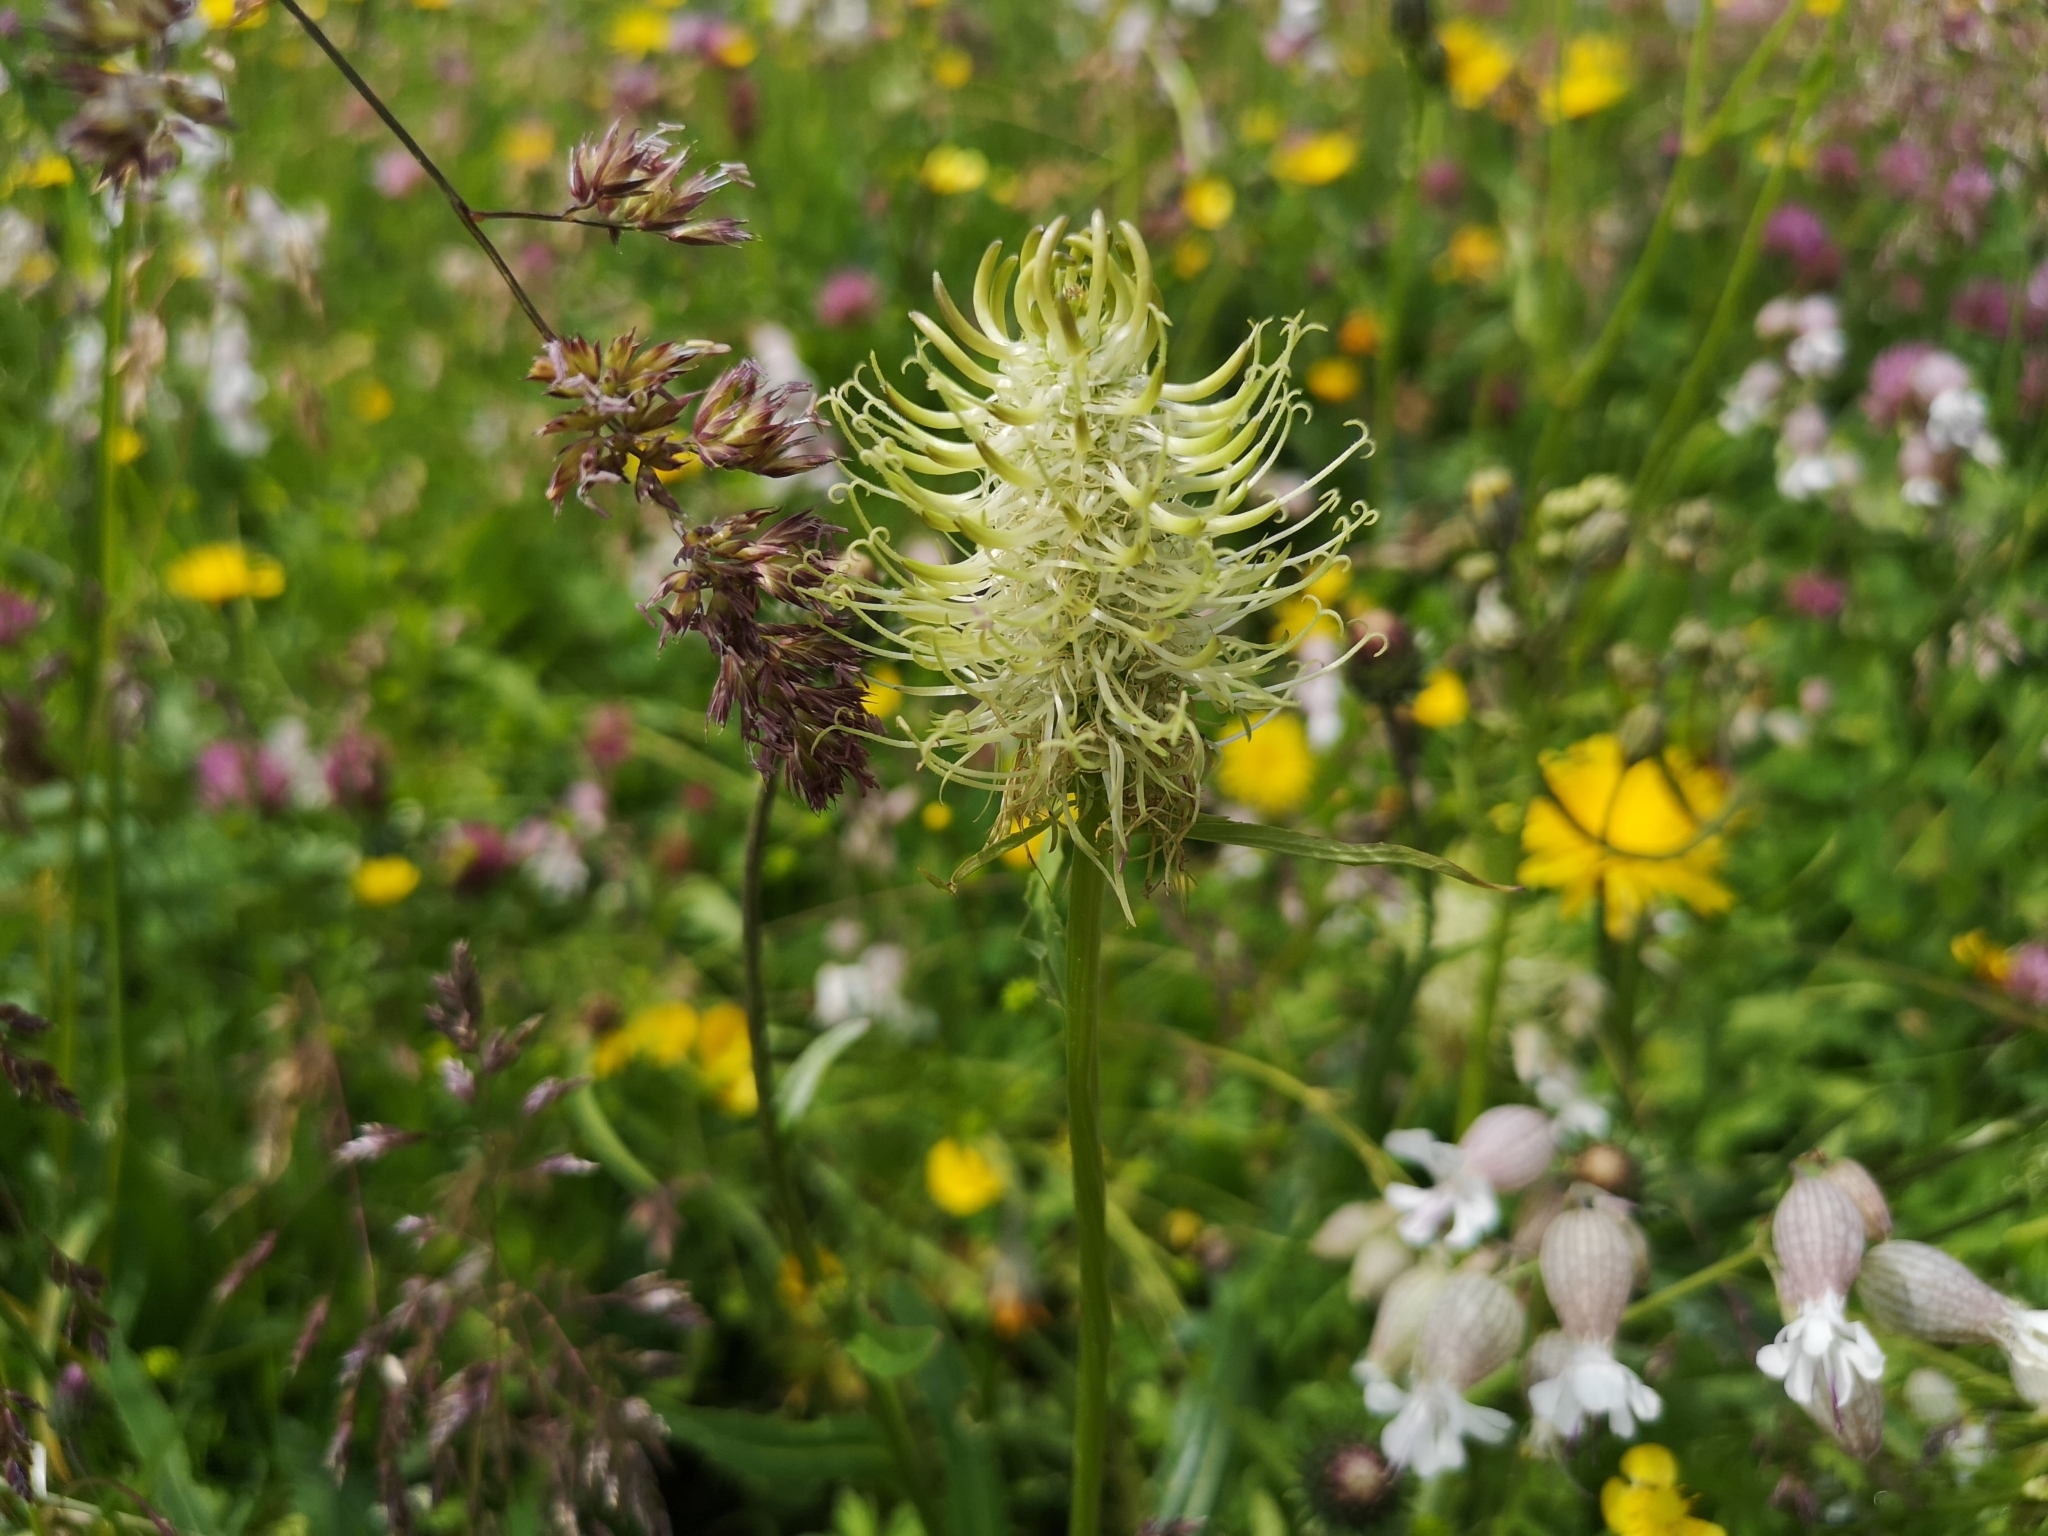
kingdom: Plantae
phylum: Tracheophyta
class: Magnoliopsida
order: Asterales
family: Campanulaceae
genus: Phyteuma
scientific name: Phyteuma spicatum
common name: Spiked rampion
